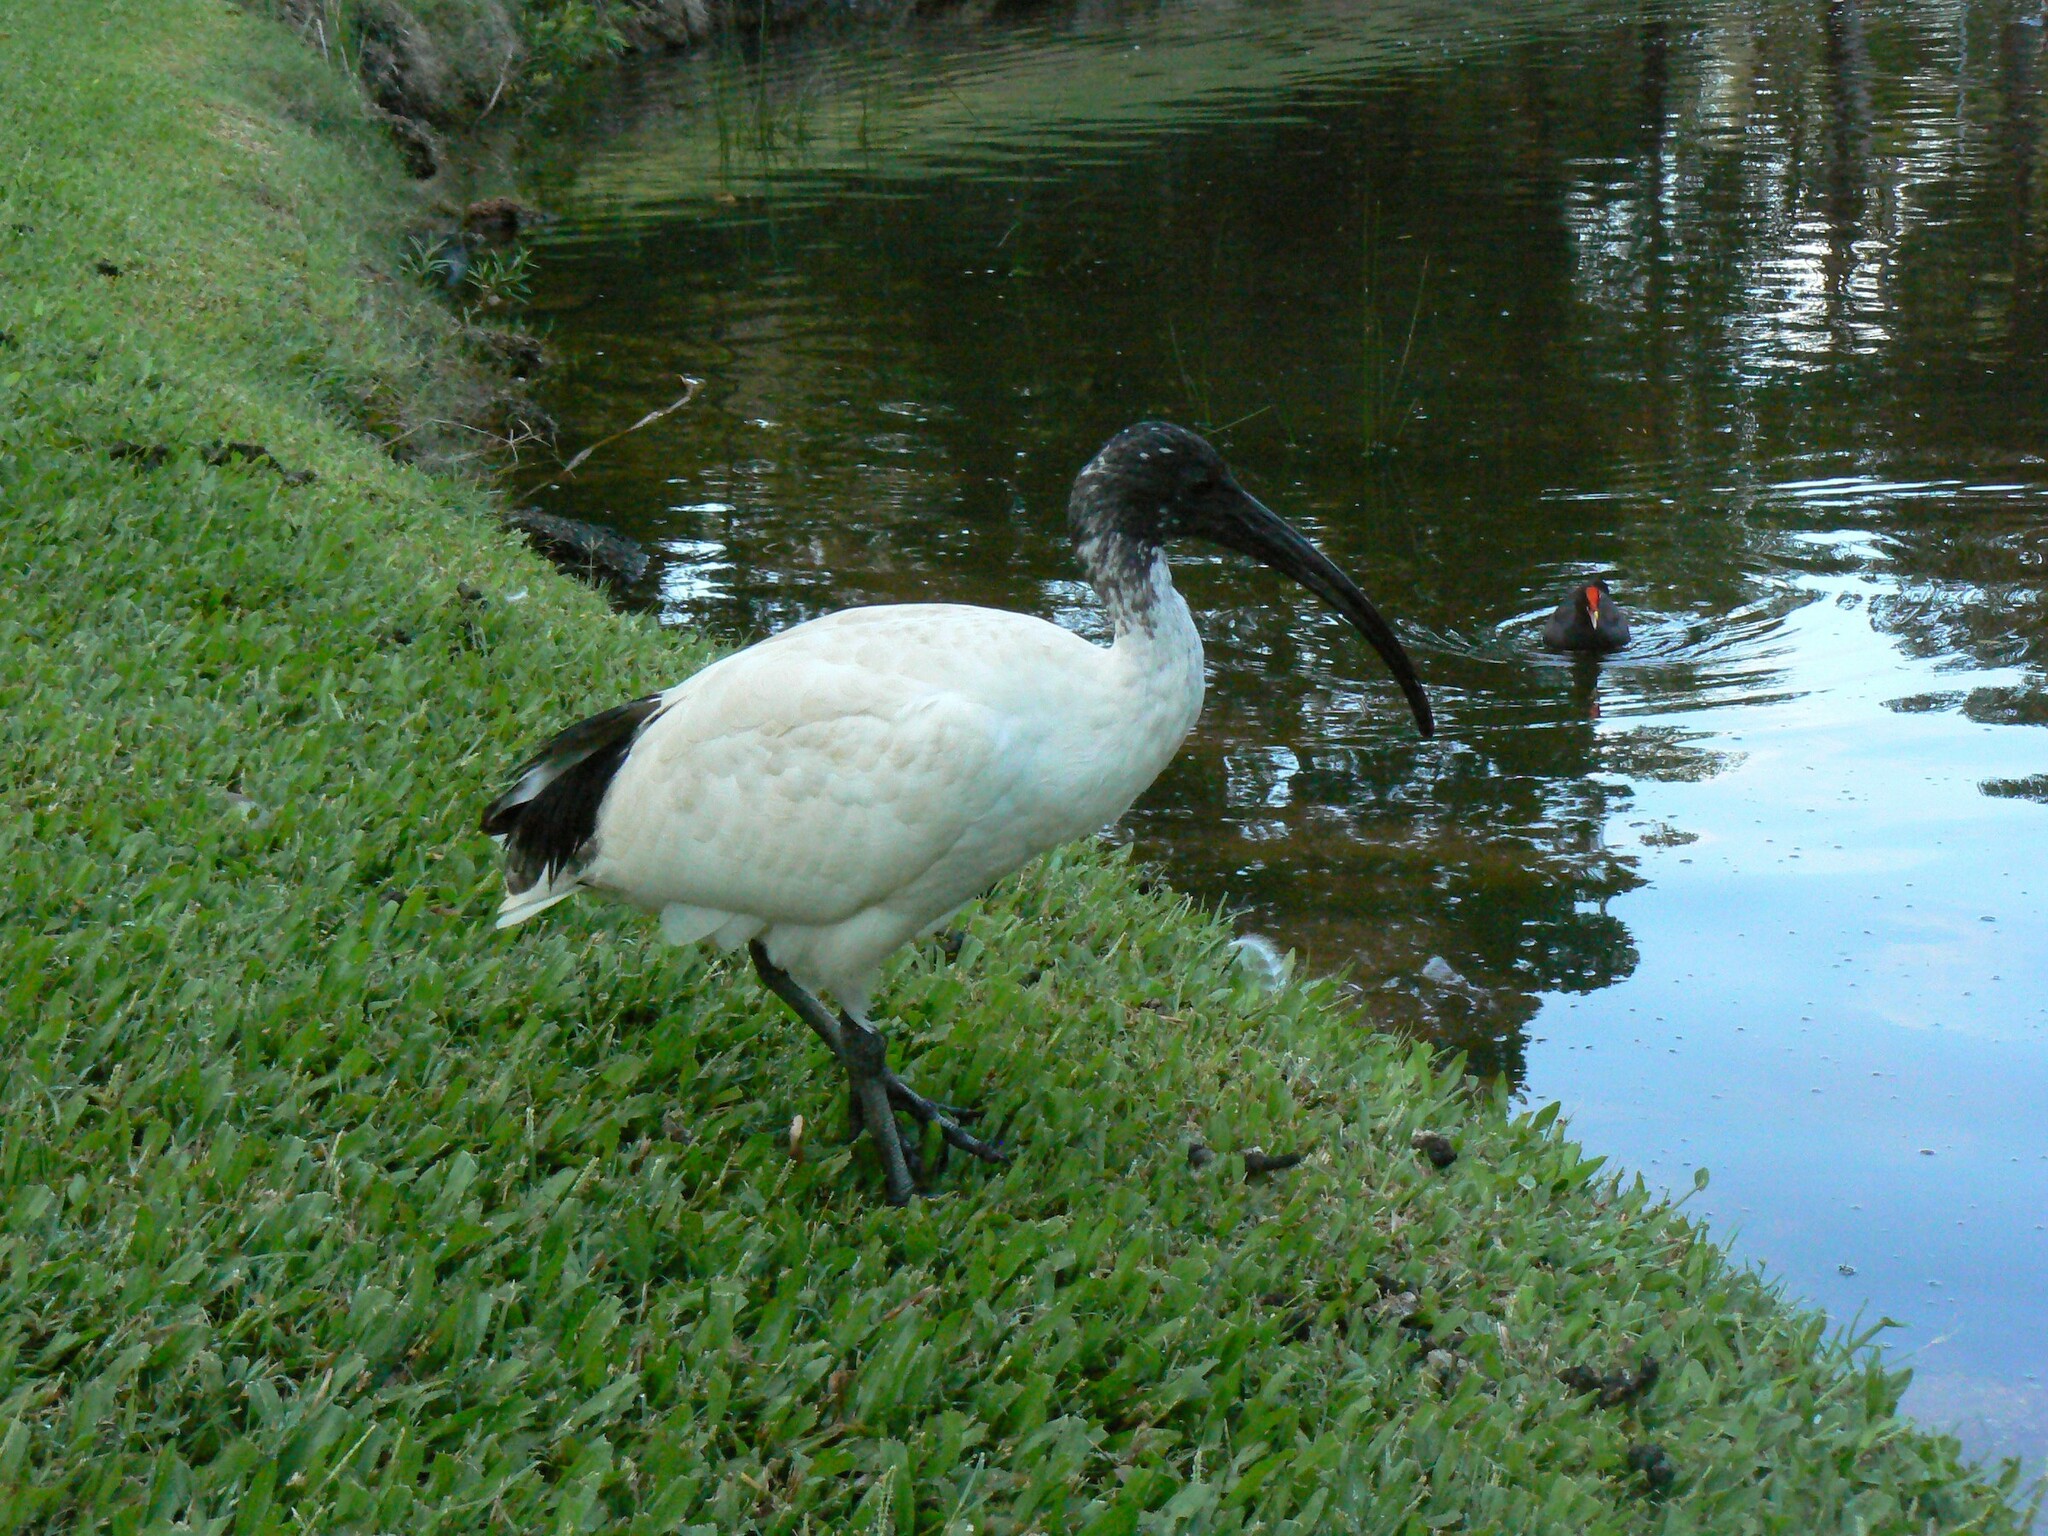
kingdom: Animalia
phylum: Chordata
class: Aves
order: Pelecaniformes
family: Threskiornithidae
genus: Threskiornis
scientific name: Threskiornis molucca
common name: Australian white ibis
